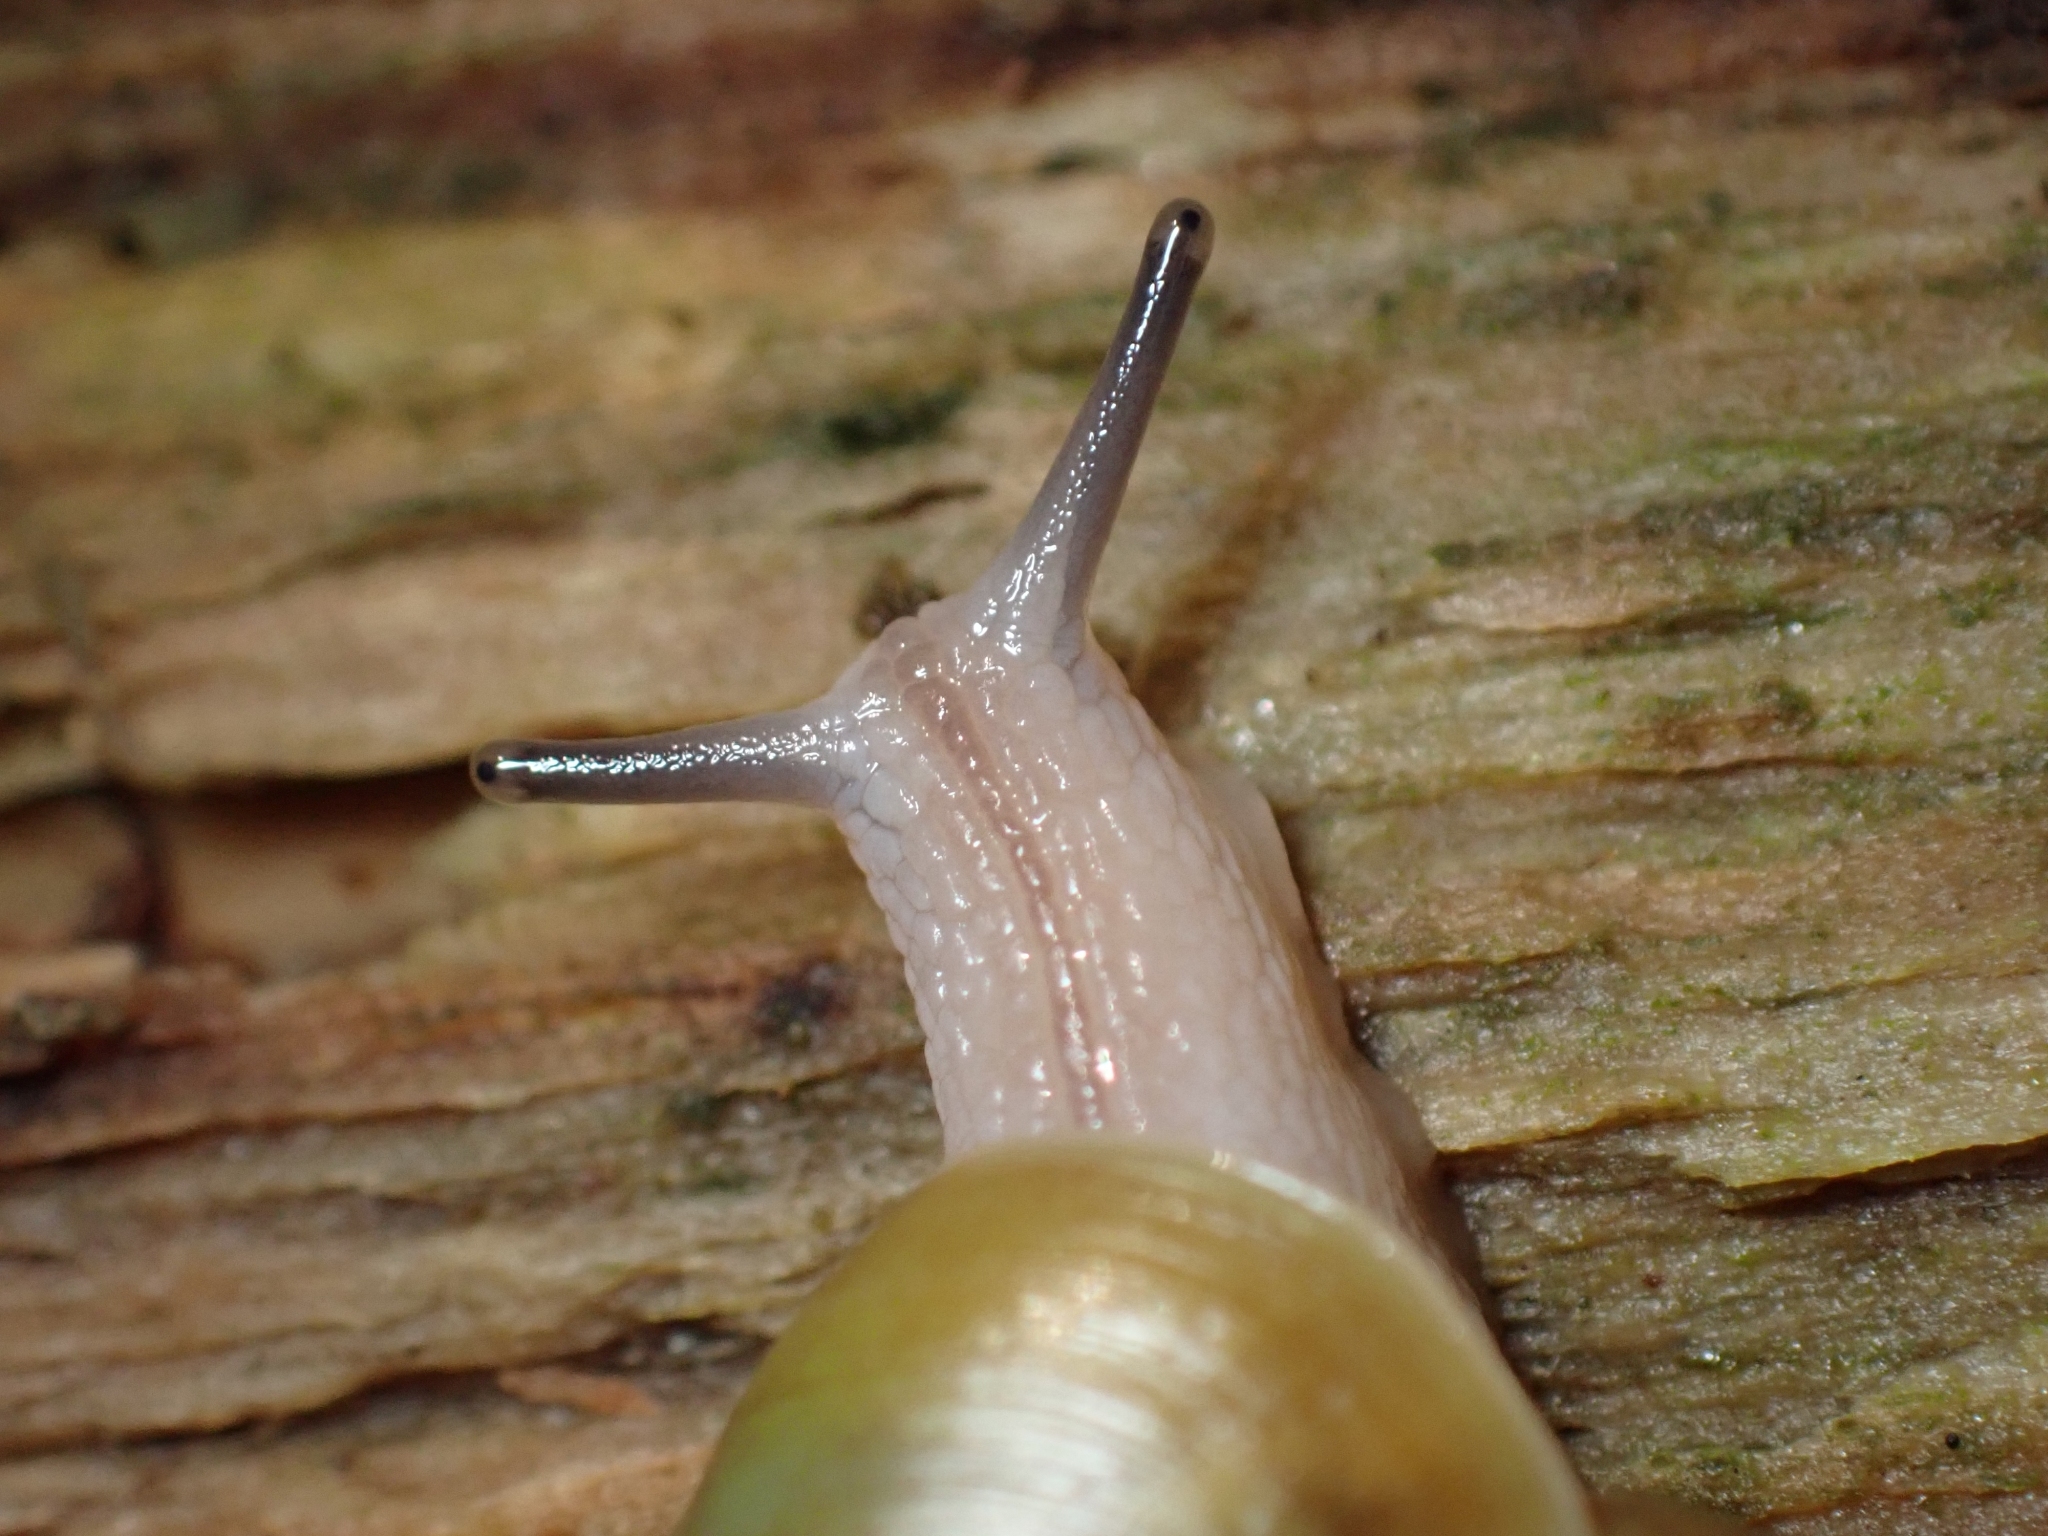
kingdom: Animalia
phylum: Mollusca
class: Gastropoda
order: Stylommatophora
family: Haplotrematidae
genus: Haplotrema
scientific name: Haplotrema vancouverense
